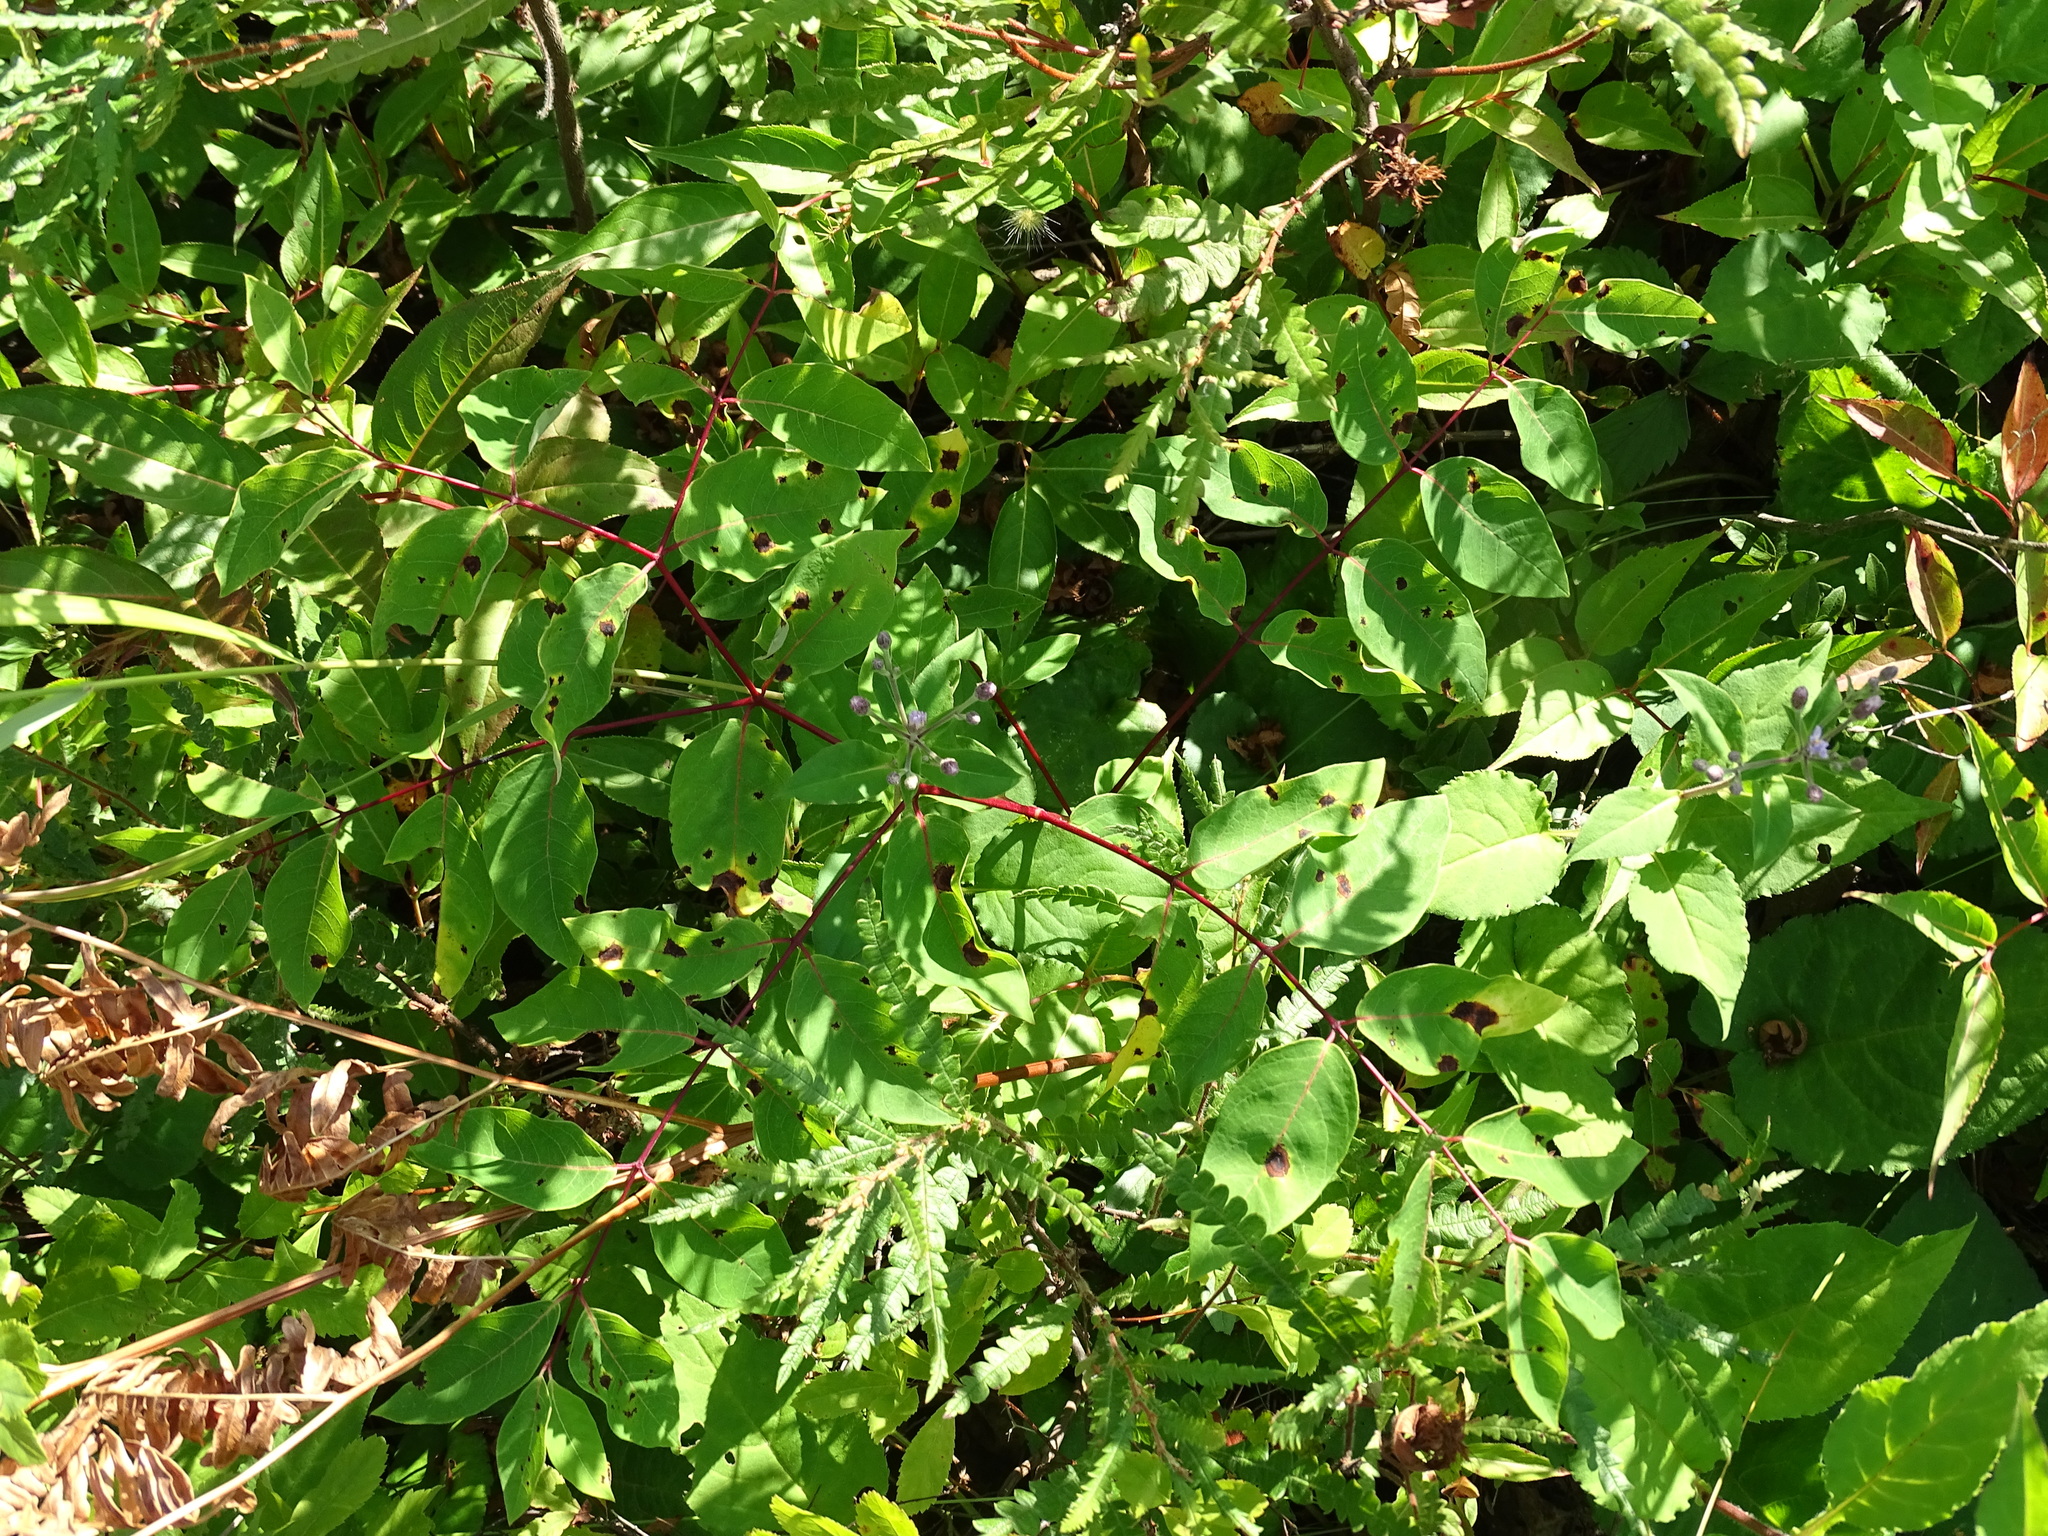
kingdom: Plantae
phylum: Tracheophyta
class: Magnoliopsida
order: Gentianales
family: Apocynaceae
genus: Apocynum
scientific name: Apocynum androsaemifolium
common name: Spreading dogbane
